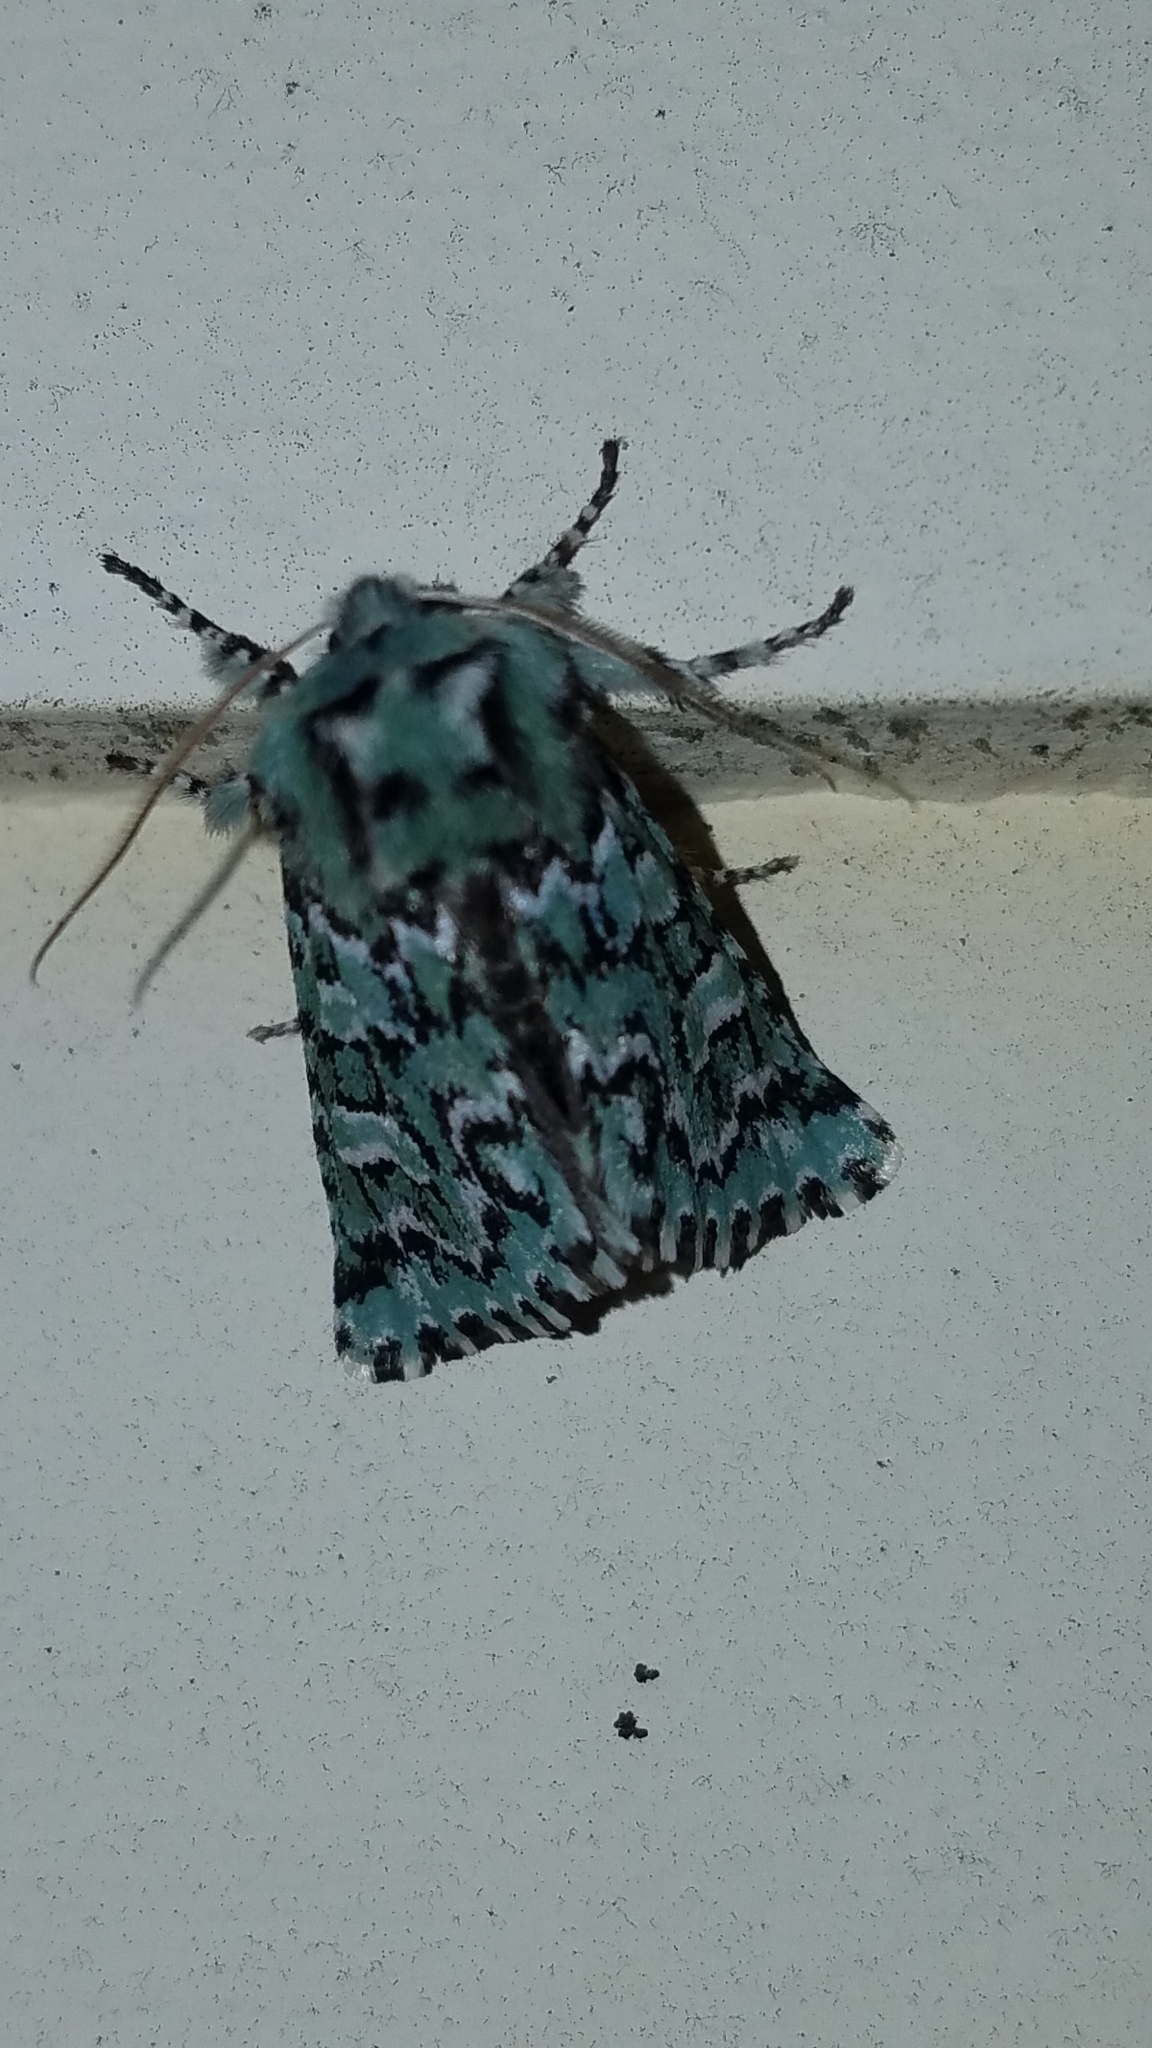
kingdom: Animalia
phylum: Arthropoda
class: Insecta
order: Lepidoptera
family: Noctuidae
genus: Feralia
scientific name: Feralia jocosa
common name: Joker
